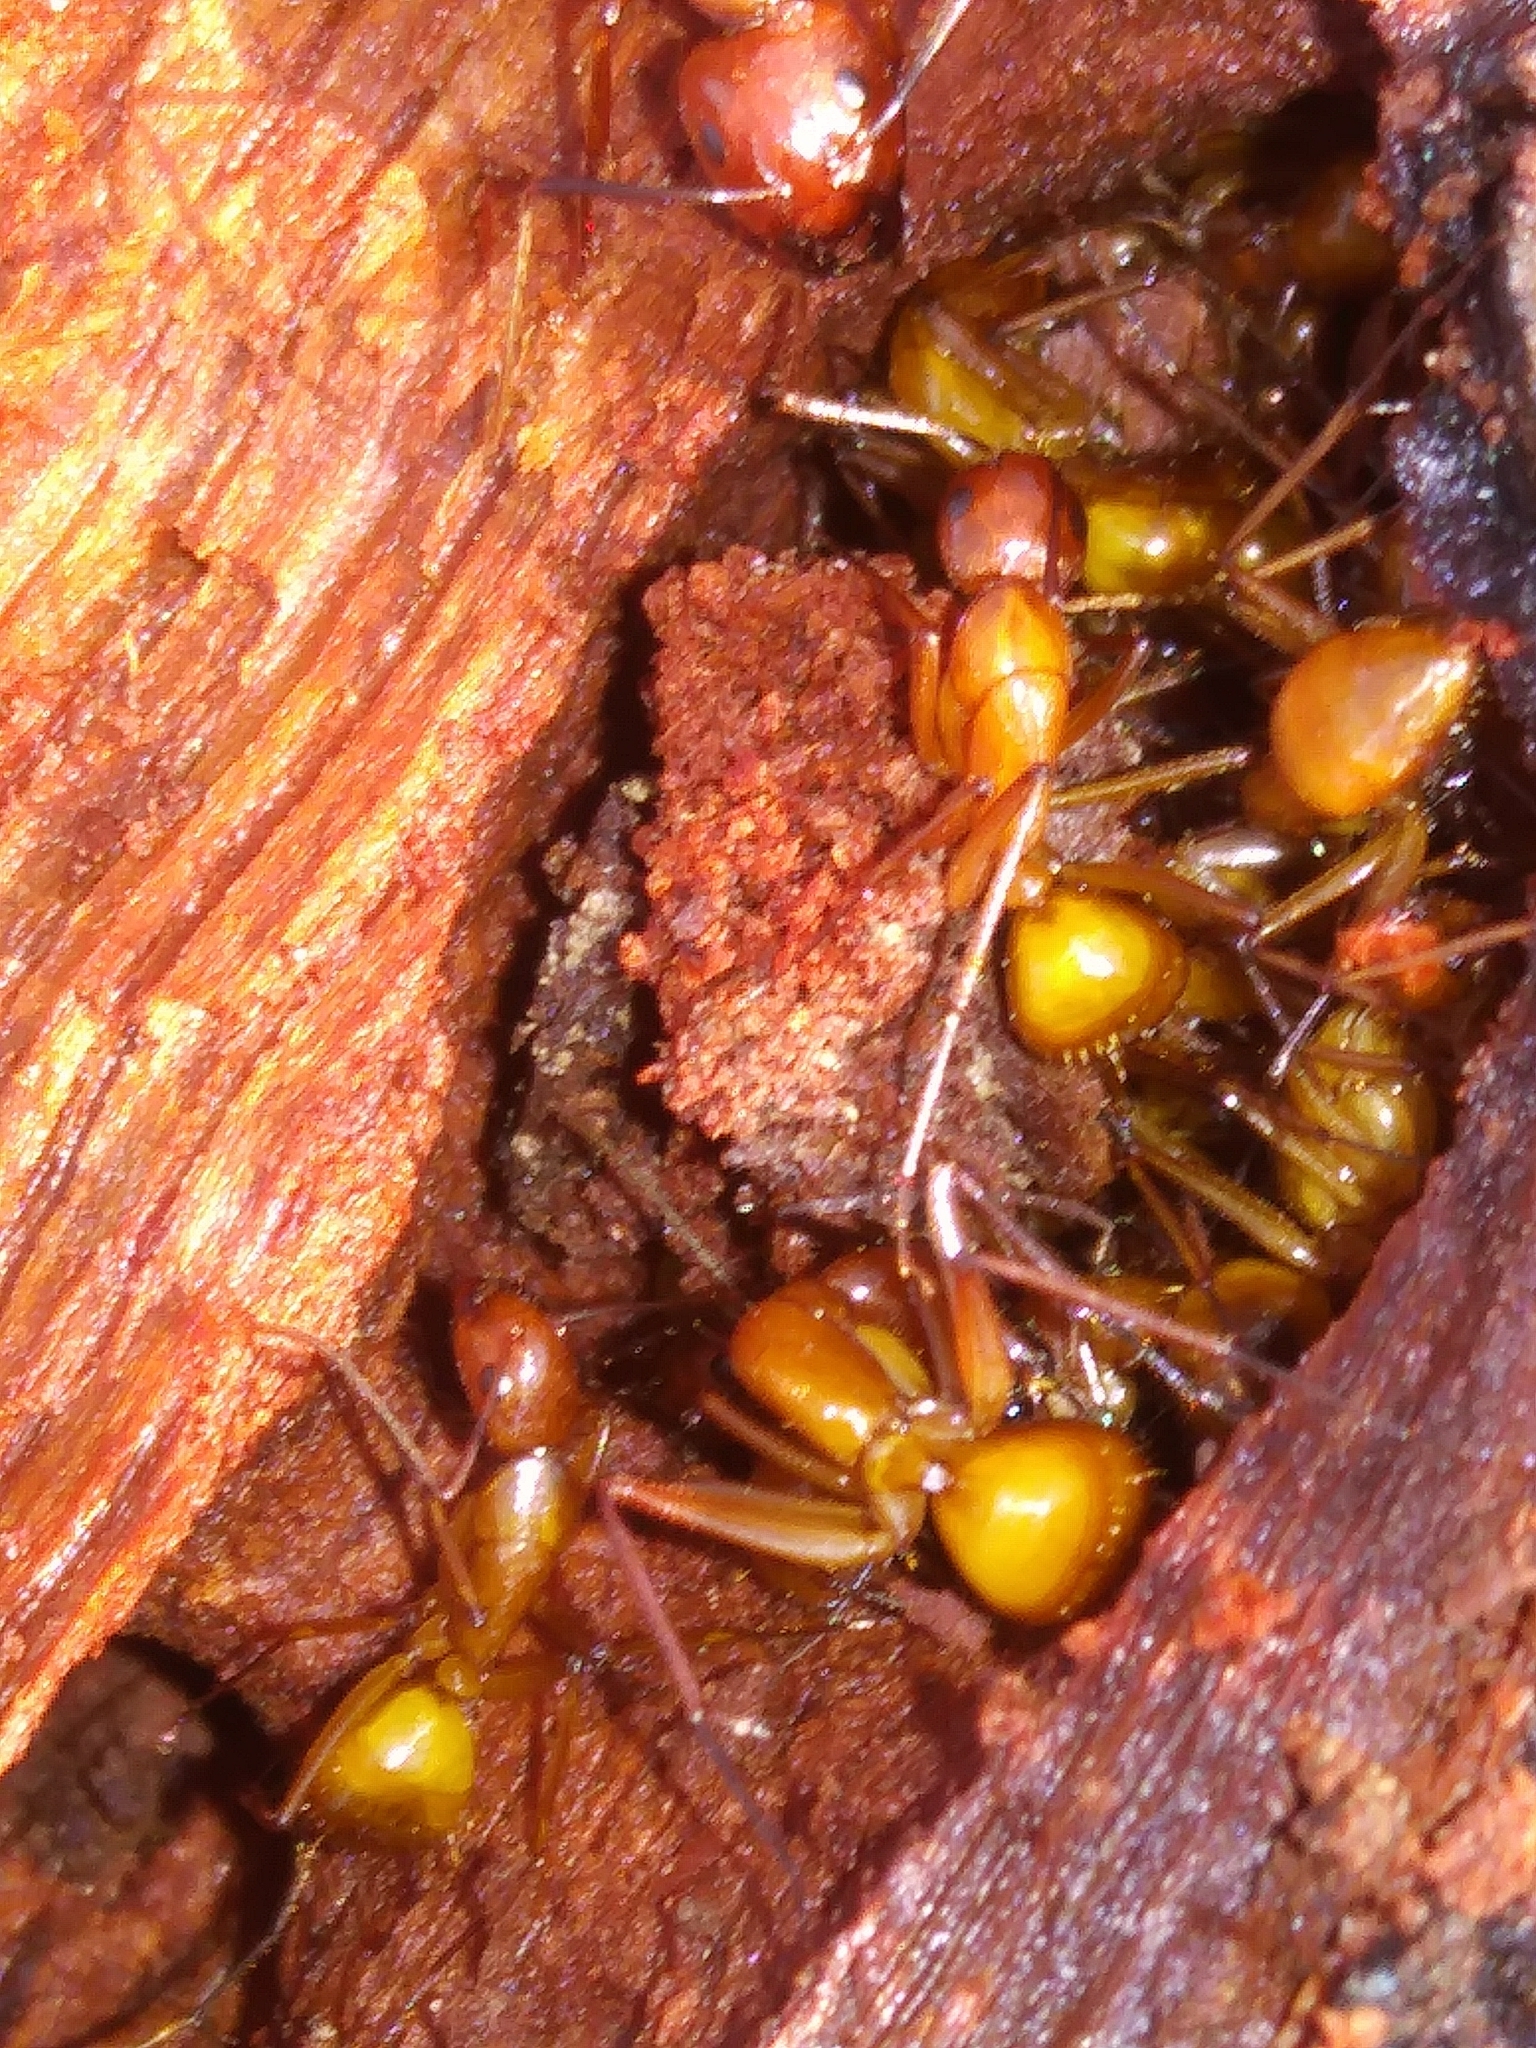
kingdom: Animalia
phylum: Arthropoda
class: Insecta
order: Hymenoptera
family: Formicidae
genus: Camponotus
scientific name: Camponotus castaneus
